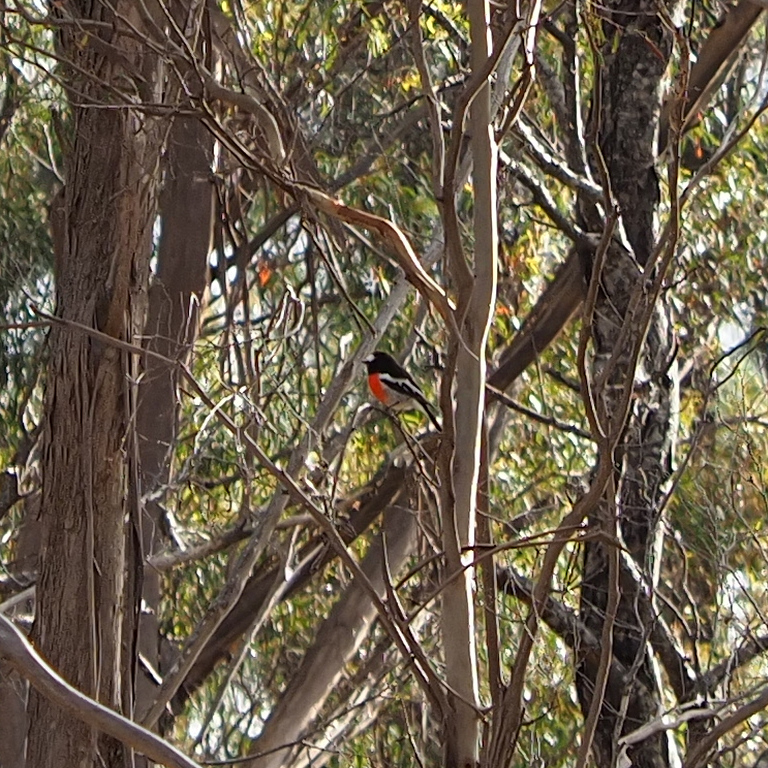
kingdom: Animalia
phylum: Chordata
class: Aves
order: Passeriformes
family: Petroicidae
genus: Petroica
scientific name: Petroica boodang
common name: Scarlet robin
